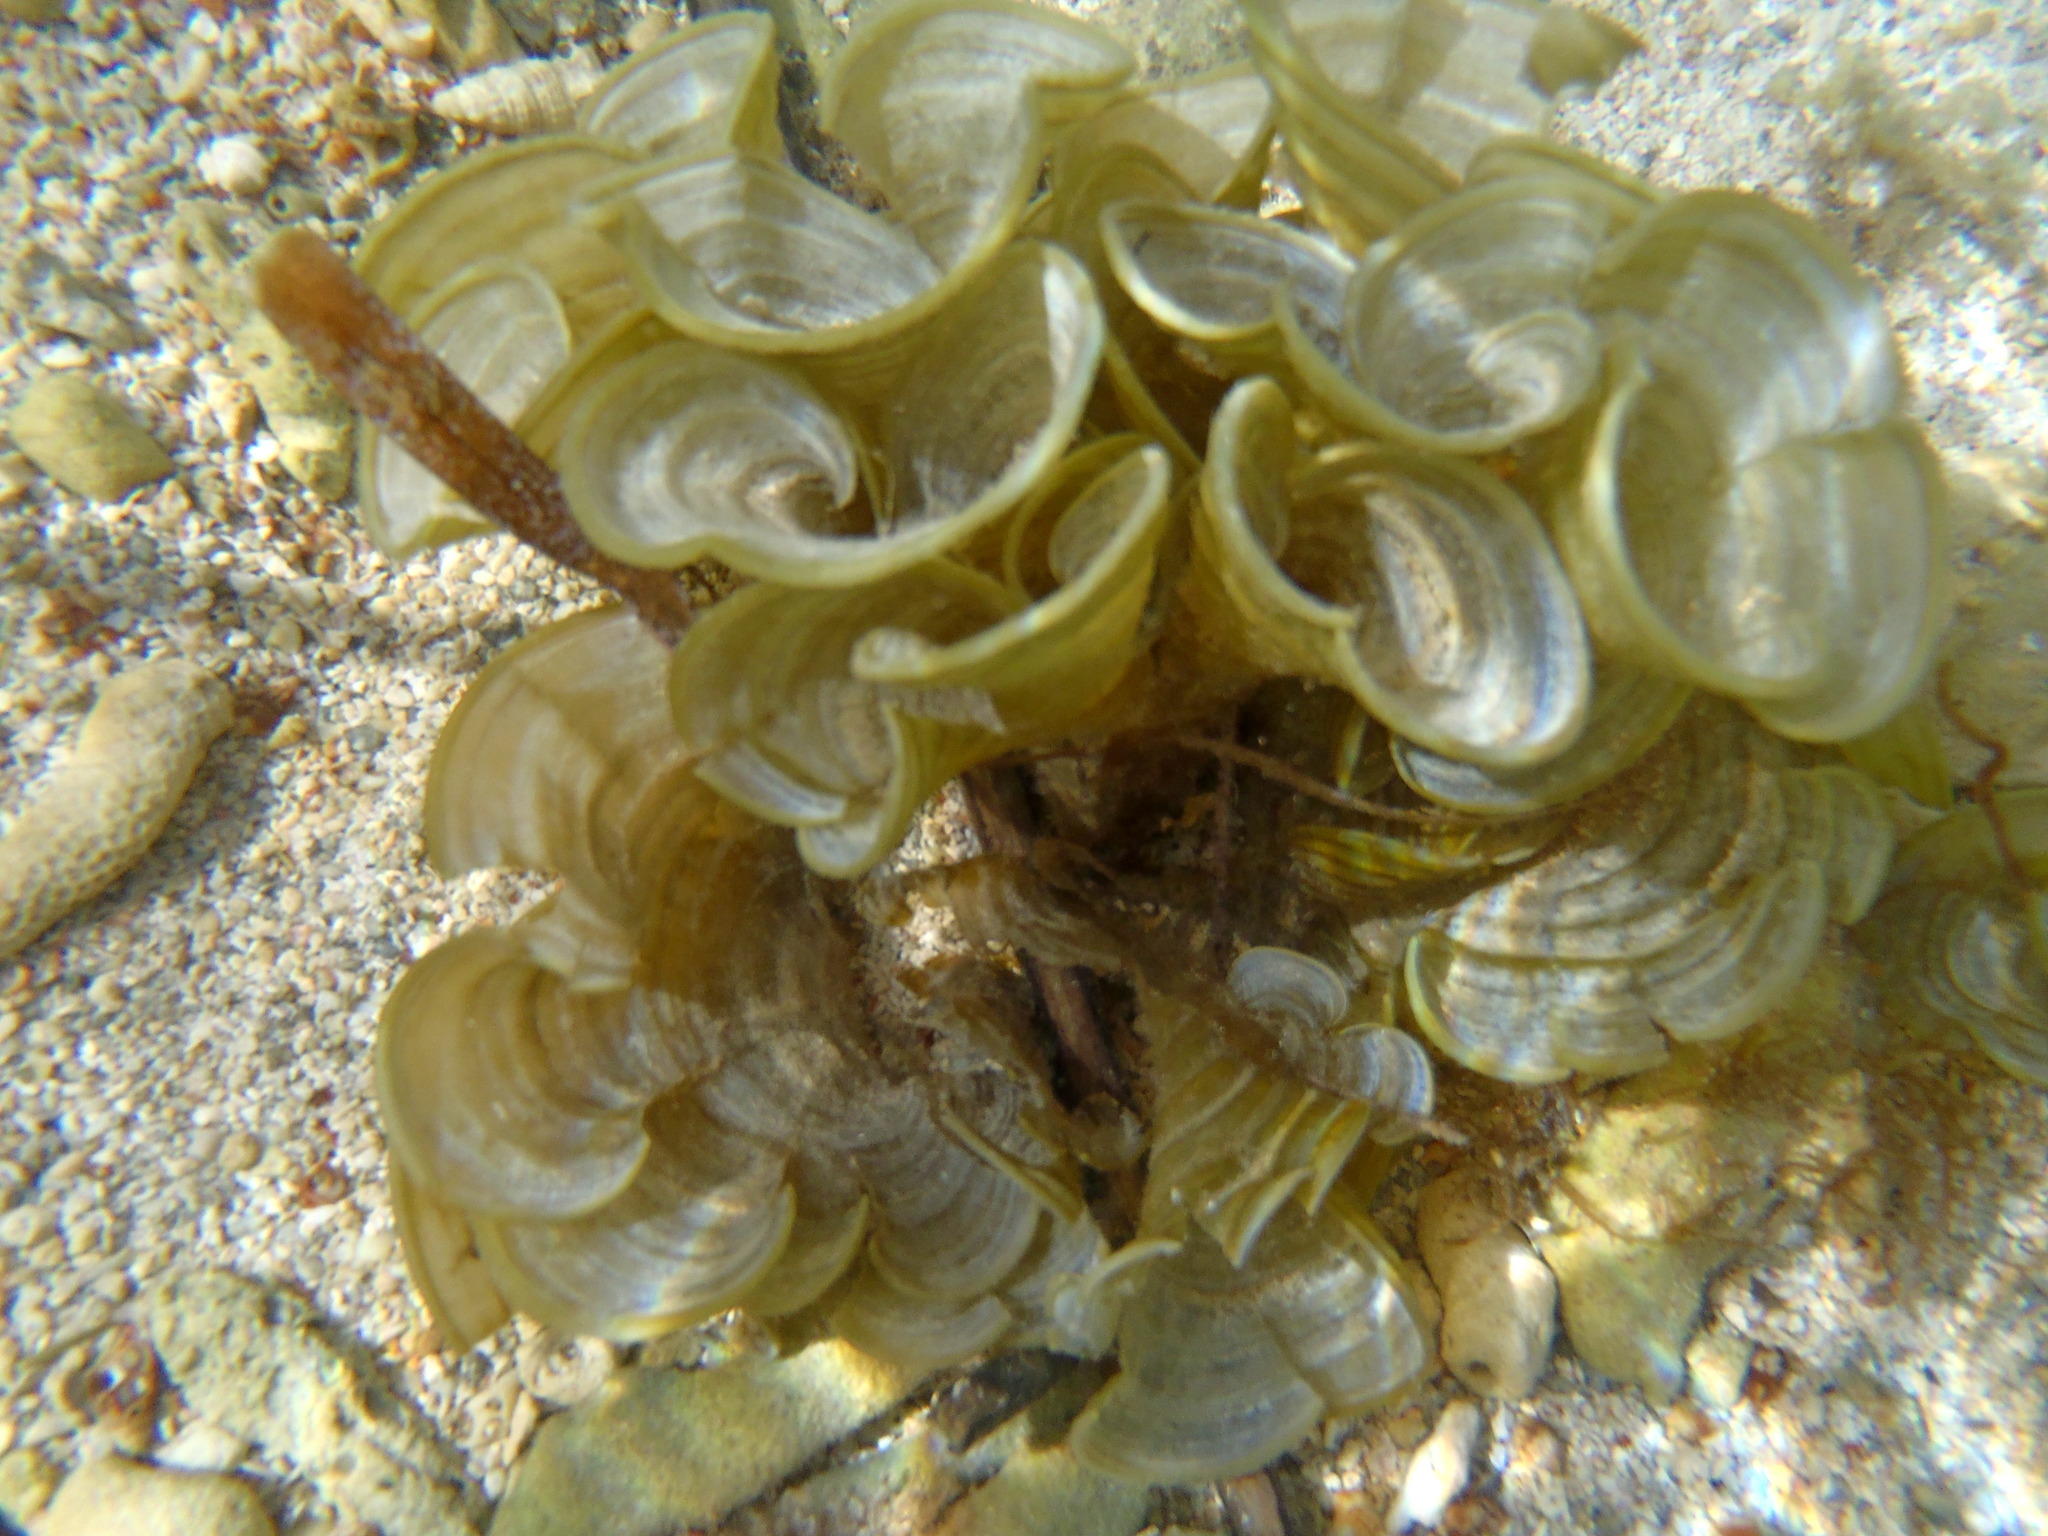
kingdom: Chromista
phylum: Ochrophyta
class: Phaeophyceae
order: Dictyotales
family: Dictyotaceae
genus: Padina
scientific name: Padina sanctae-crucis
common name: White scroll algae
